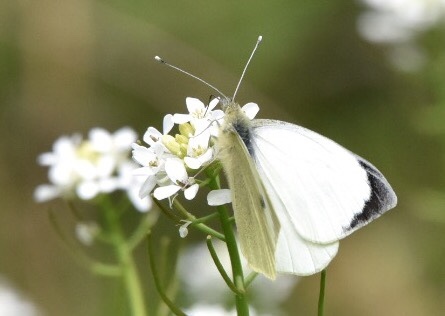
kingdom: Animalia
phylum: Arthropoda
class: Insecta
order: Lepidoptera
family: Pieridae
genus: Pieris
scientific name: Pieris brassicae
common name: Large white
